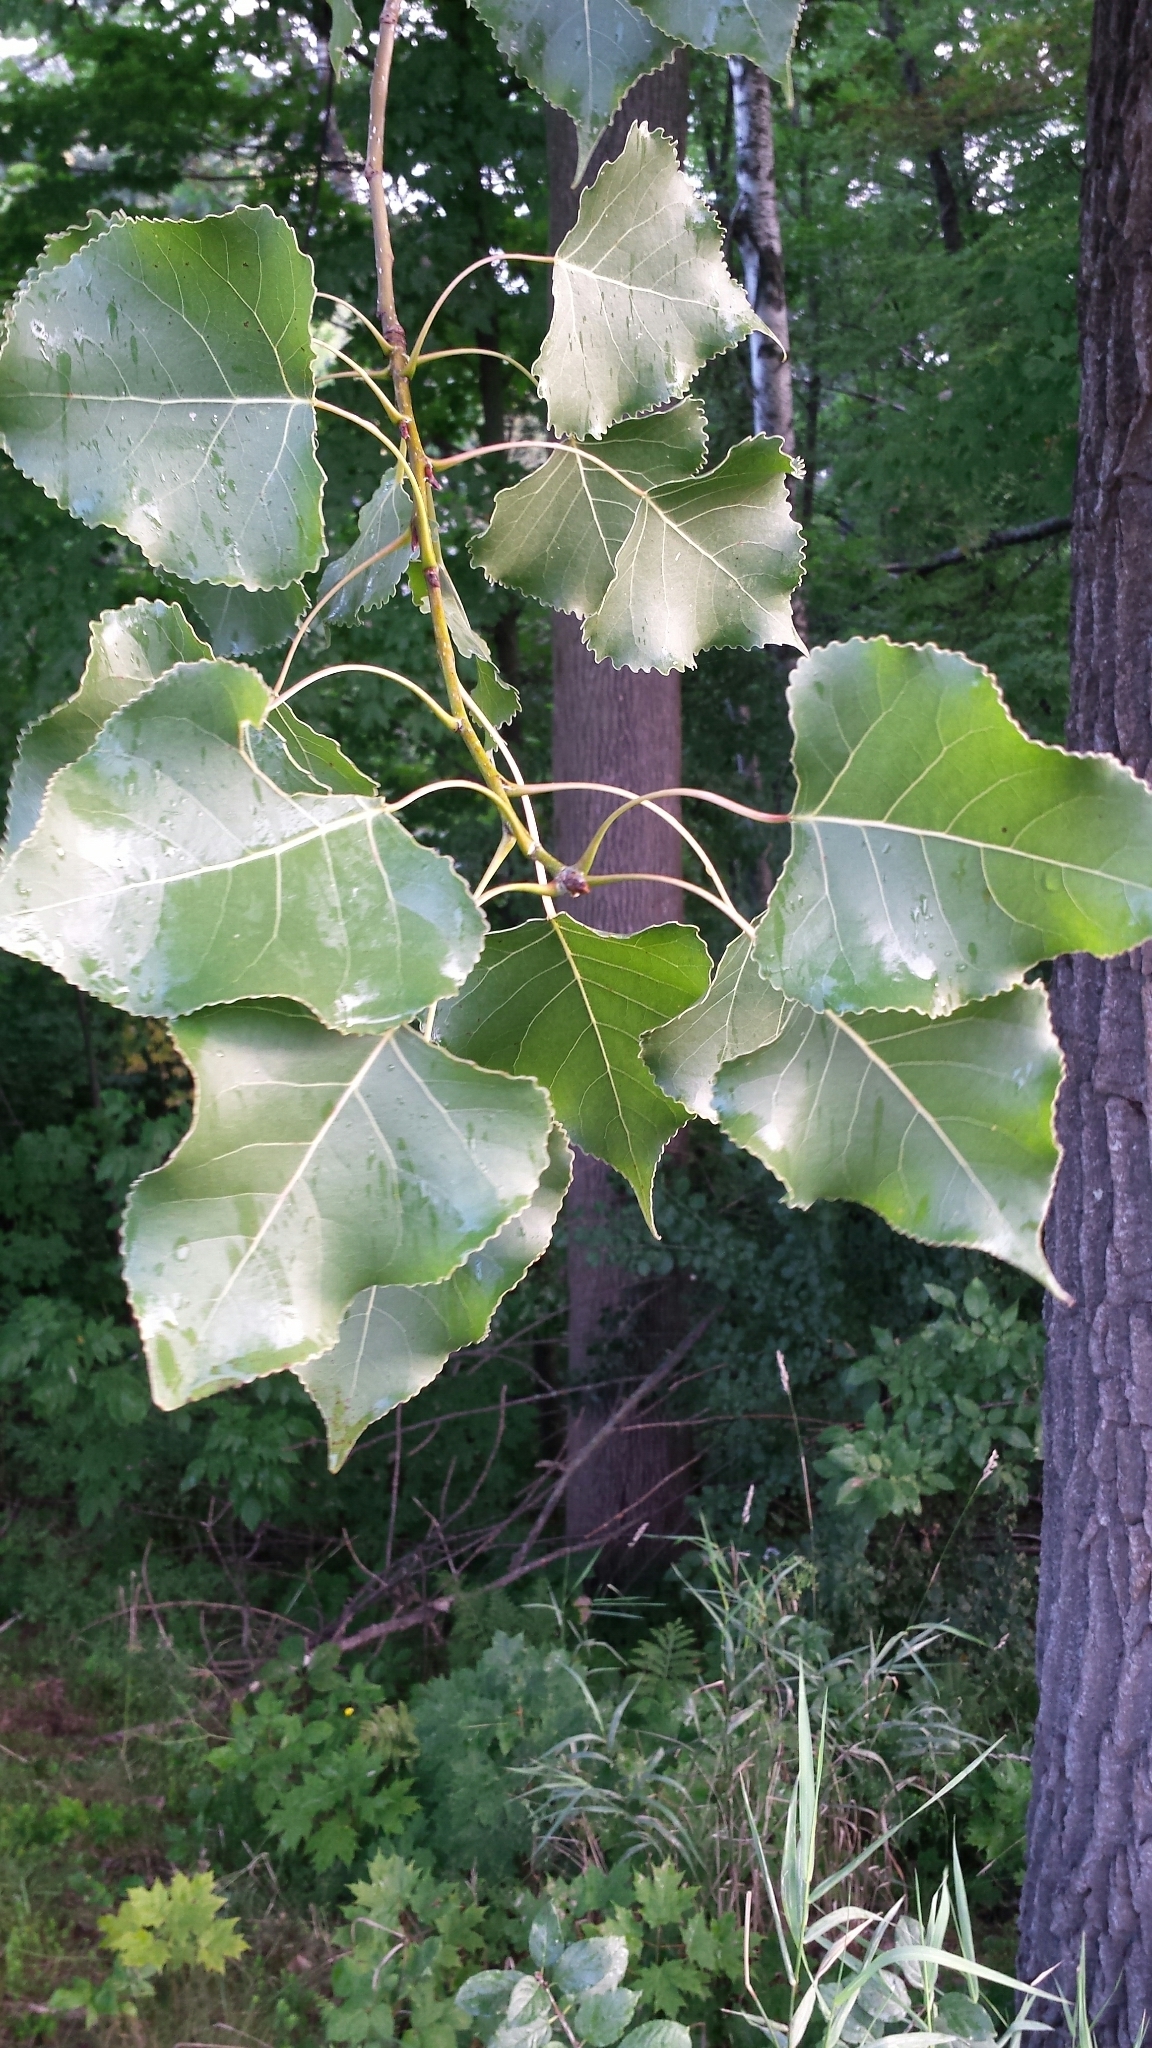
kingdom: Plantae
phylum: Tracheophyta
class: Magnoliopsida
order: Malpighiales
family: Salicaceae
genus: Populus
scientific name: Populus deltoides
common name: Eastern cottonwood
